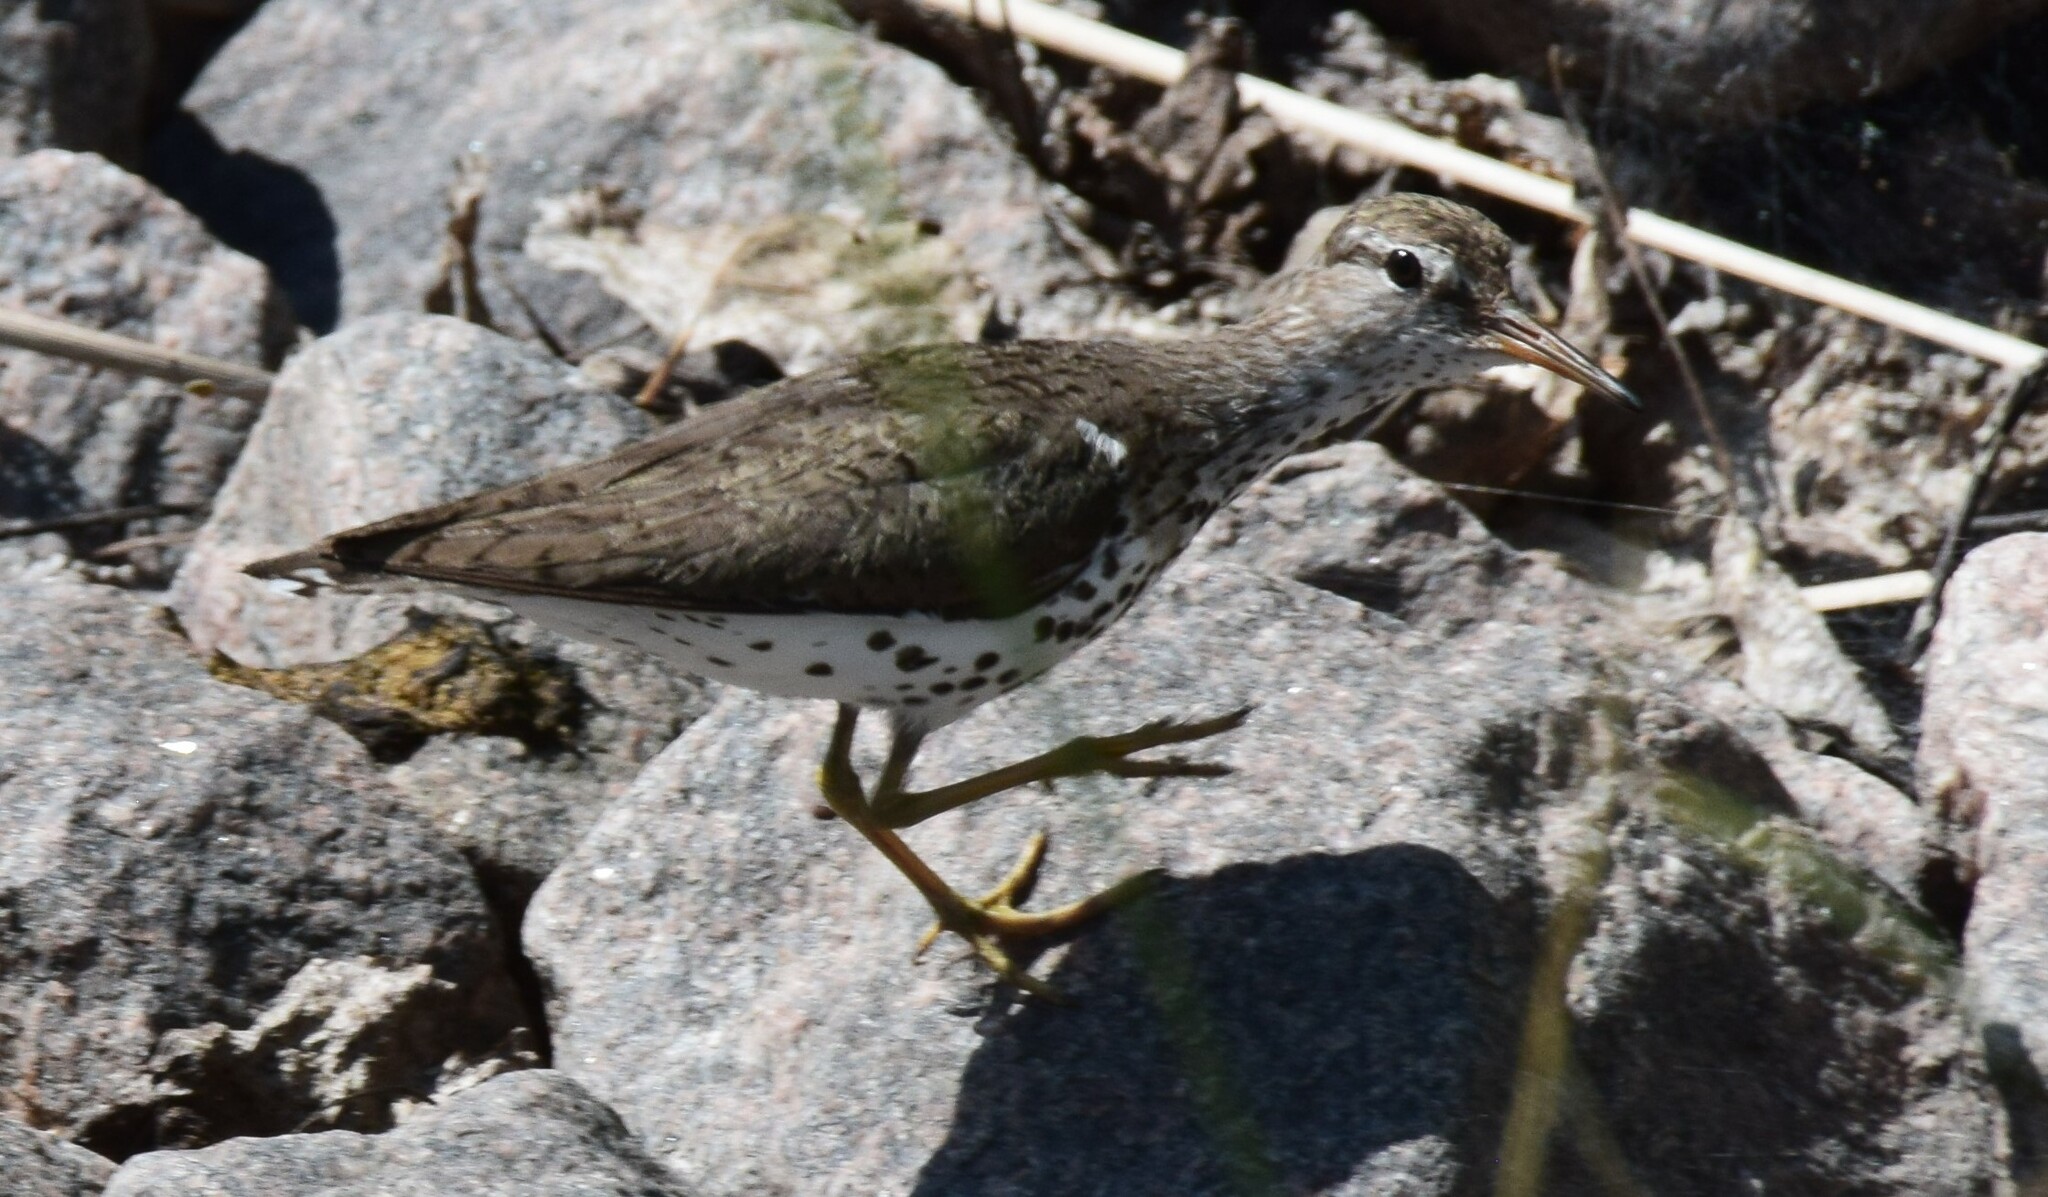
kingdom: Animalia
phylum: Chordata
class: Aves
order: Charadriiformes
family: Scolopacidae
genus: Actitis
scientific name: Actitis macularius
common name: Spotted sandpiper
